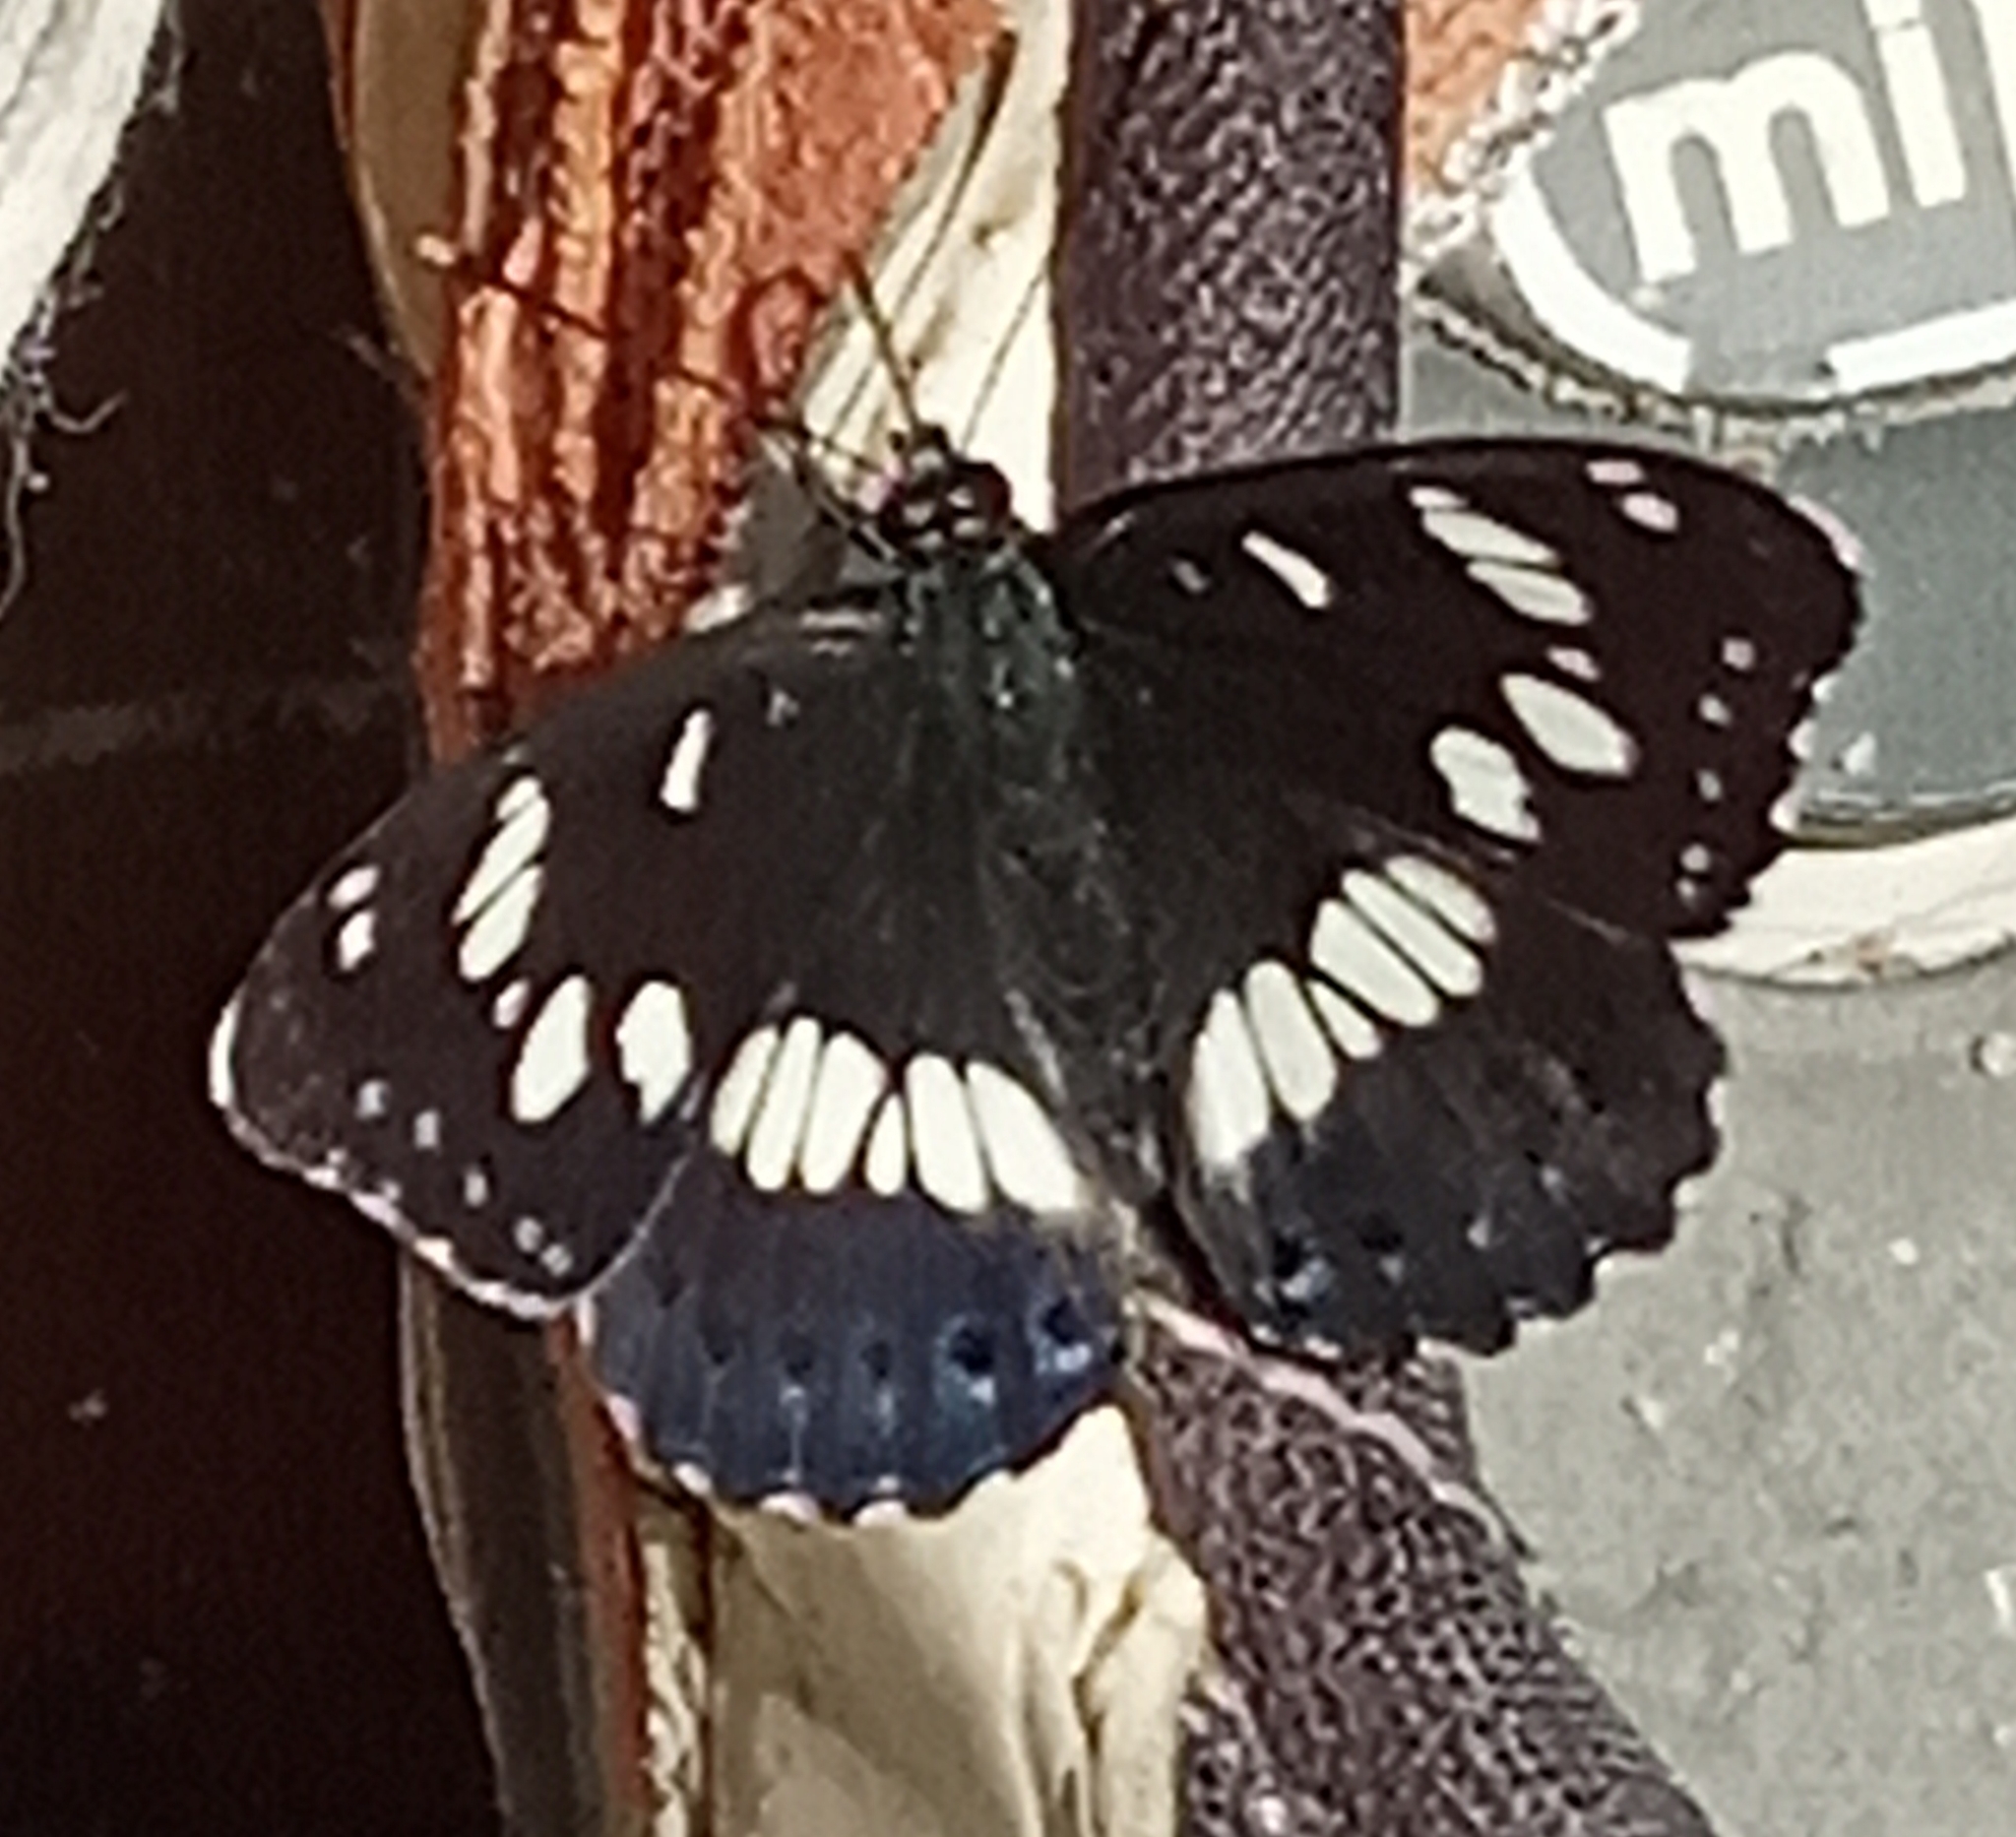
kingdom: Animalia
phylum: Arthropoda
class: Insecta
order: Lepidoptera
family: Nymphalidae
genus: Limenitis
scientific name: Limenitis reducta
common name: Southern white admiral
